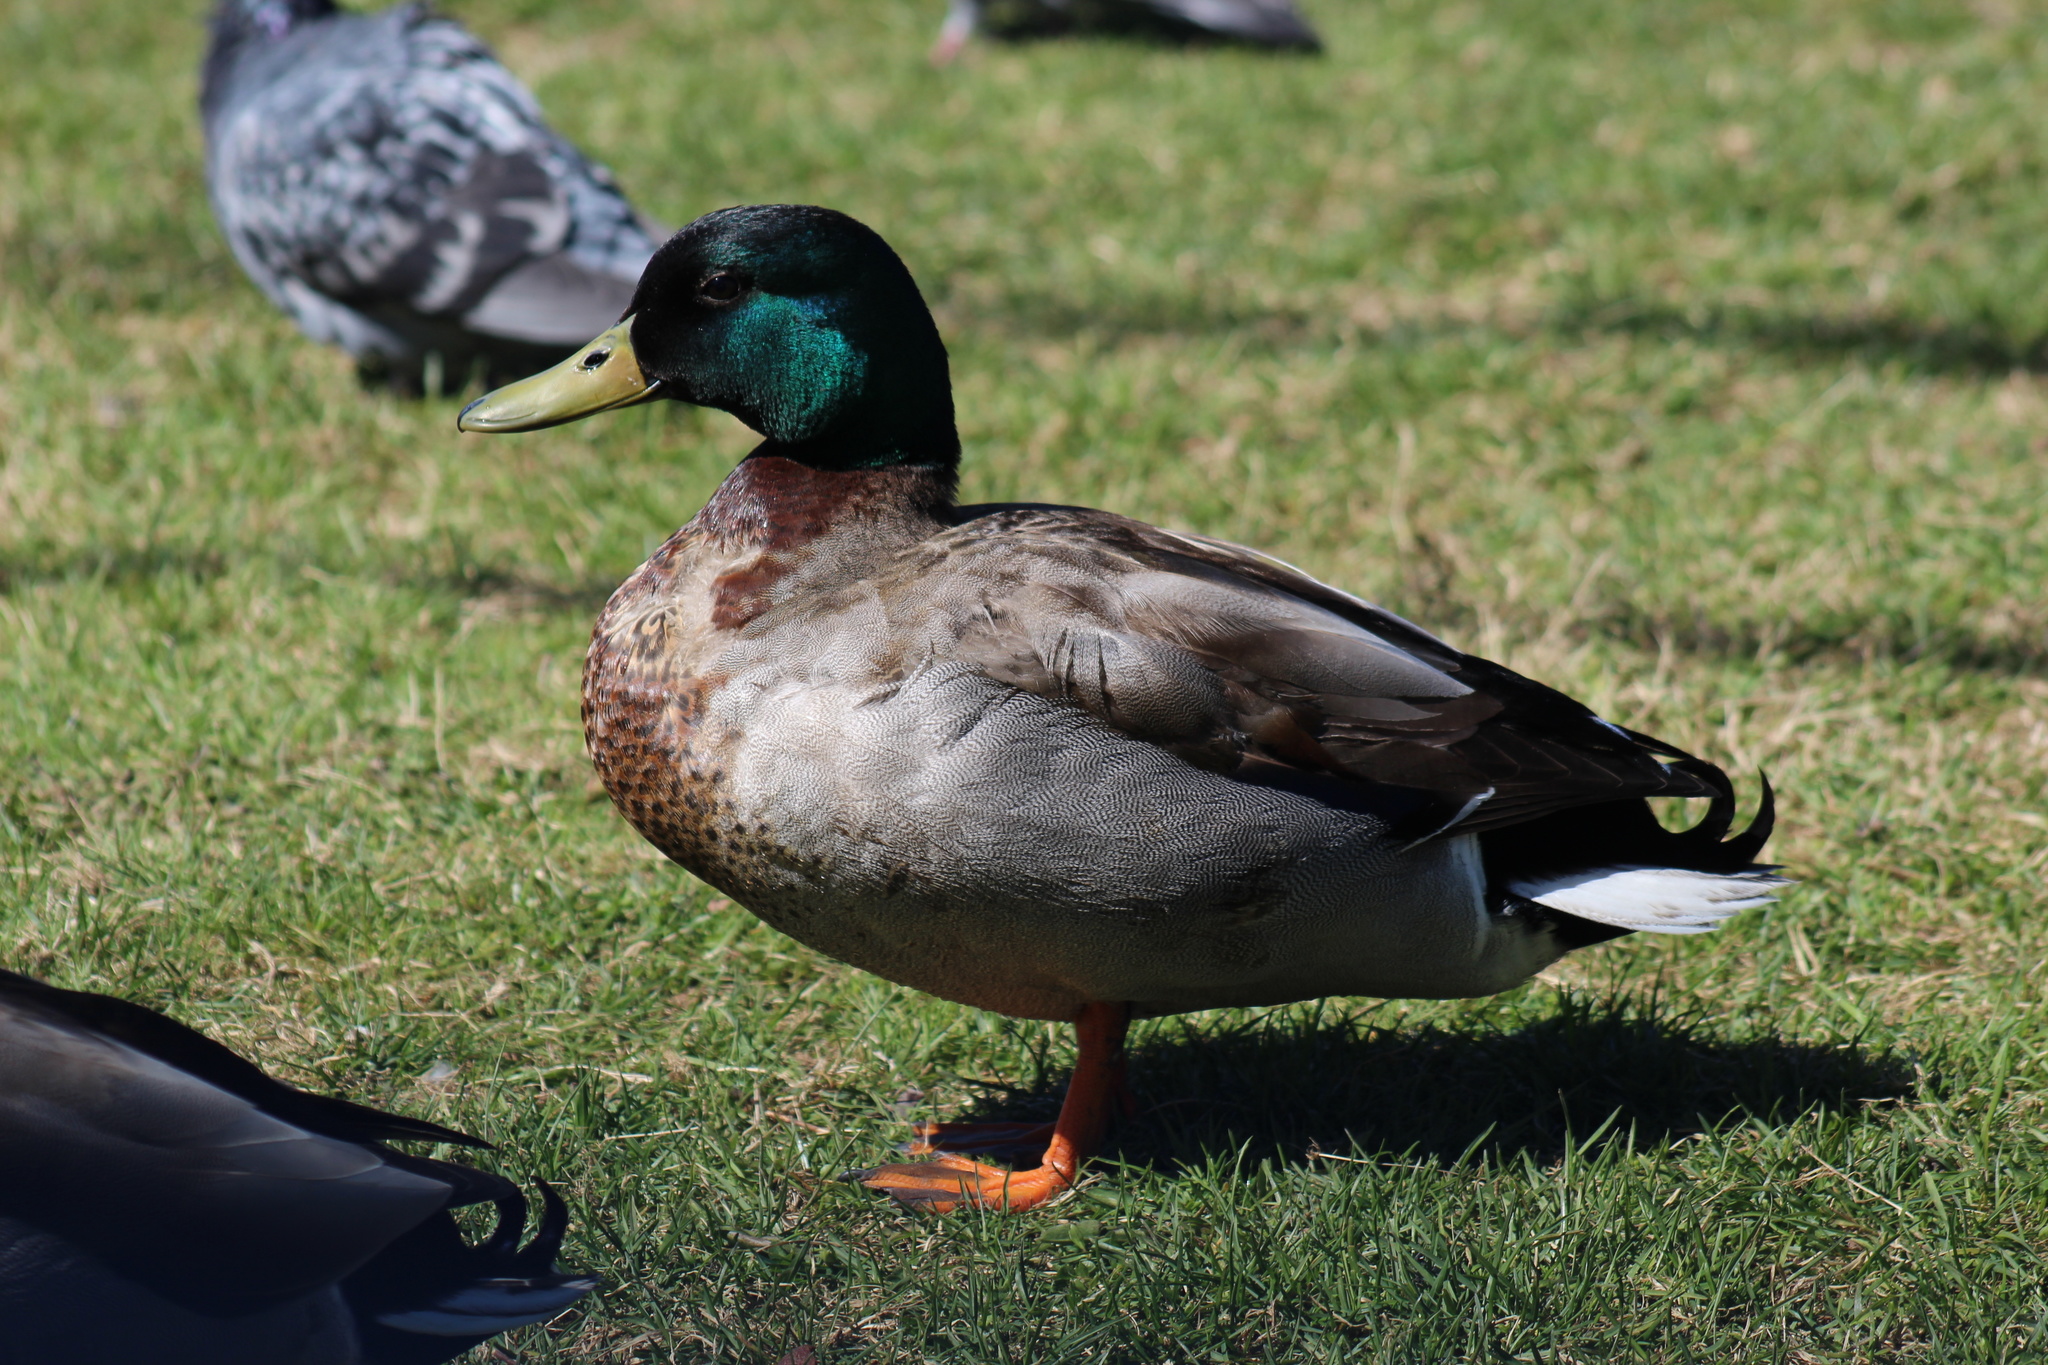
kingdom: Animalia
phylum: Chordata
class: Aves
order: Anseriformes
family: Anatidae
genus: Anas
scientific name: Anas platyrhynchos
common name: Mallard
